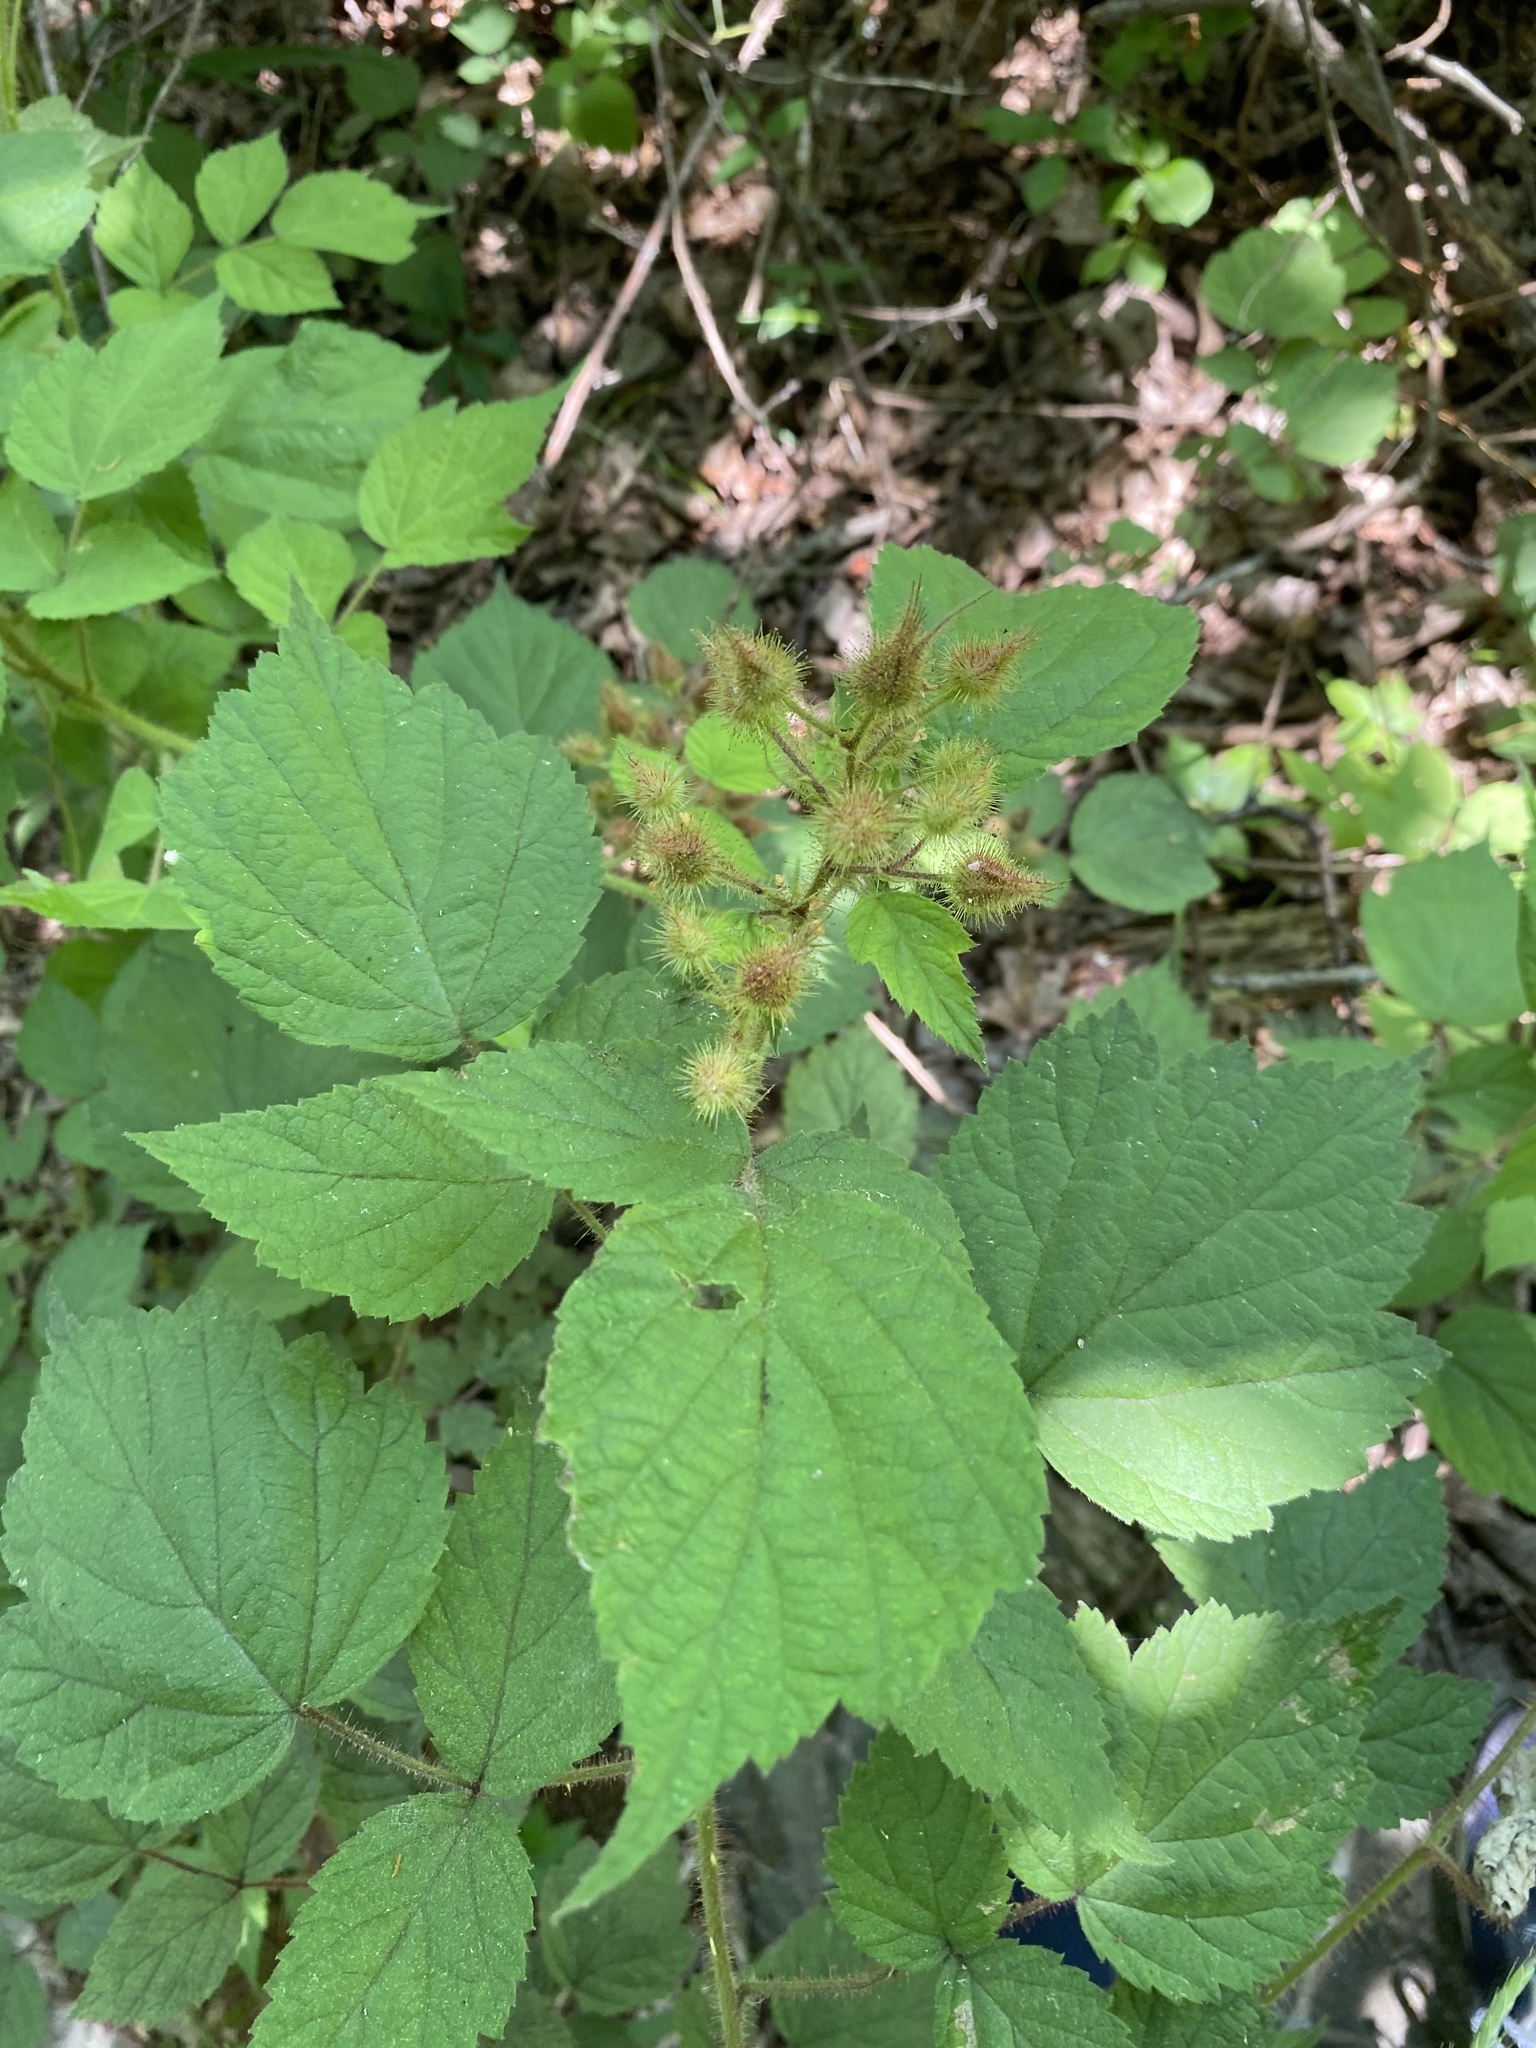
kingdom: Plantae
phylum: Tracheophyta
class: Magnoliopsida
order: Rosales
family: Rosaceae
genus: Rubus
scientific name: Rubus phoenicolasius
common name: Japanese wineberry
